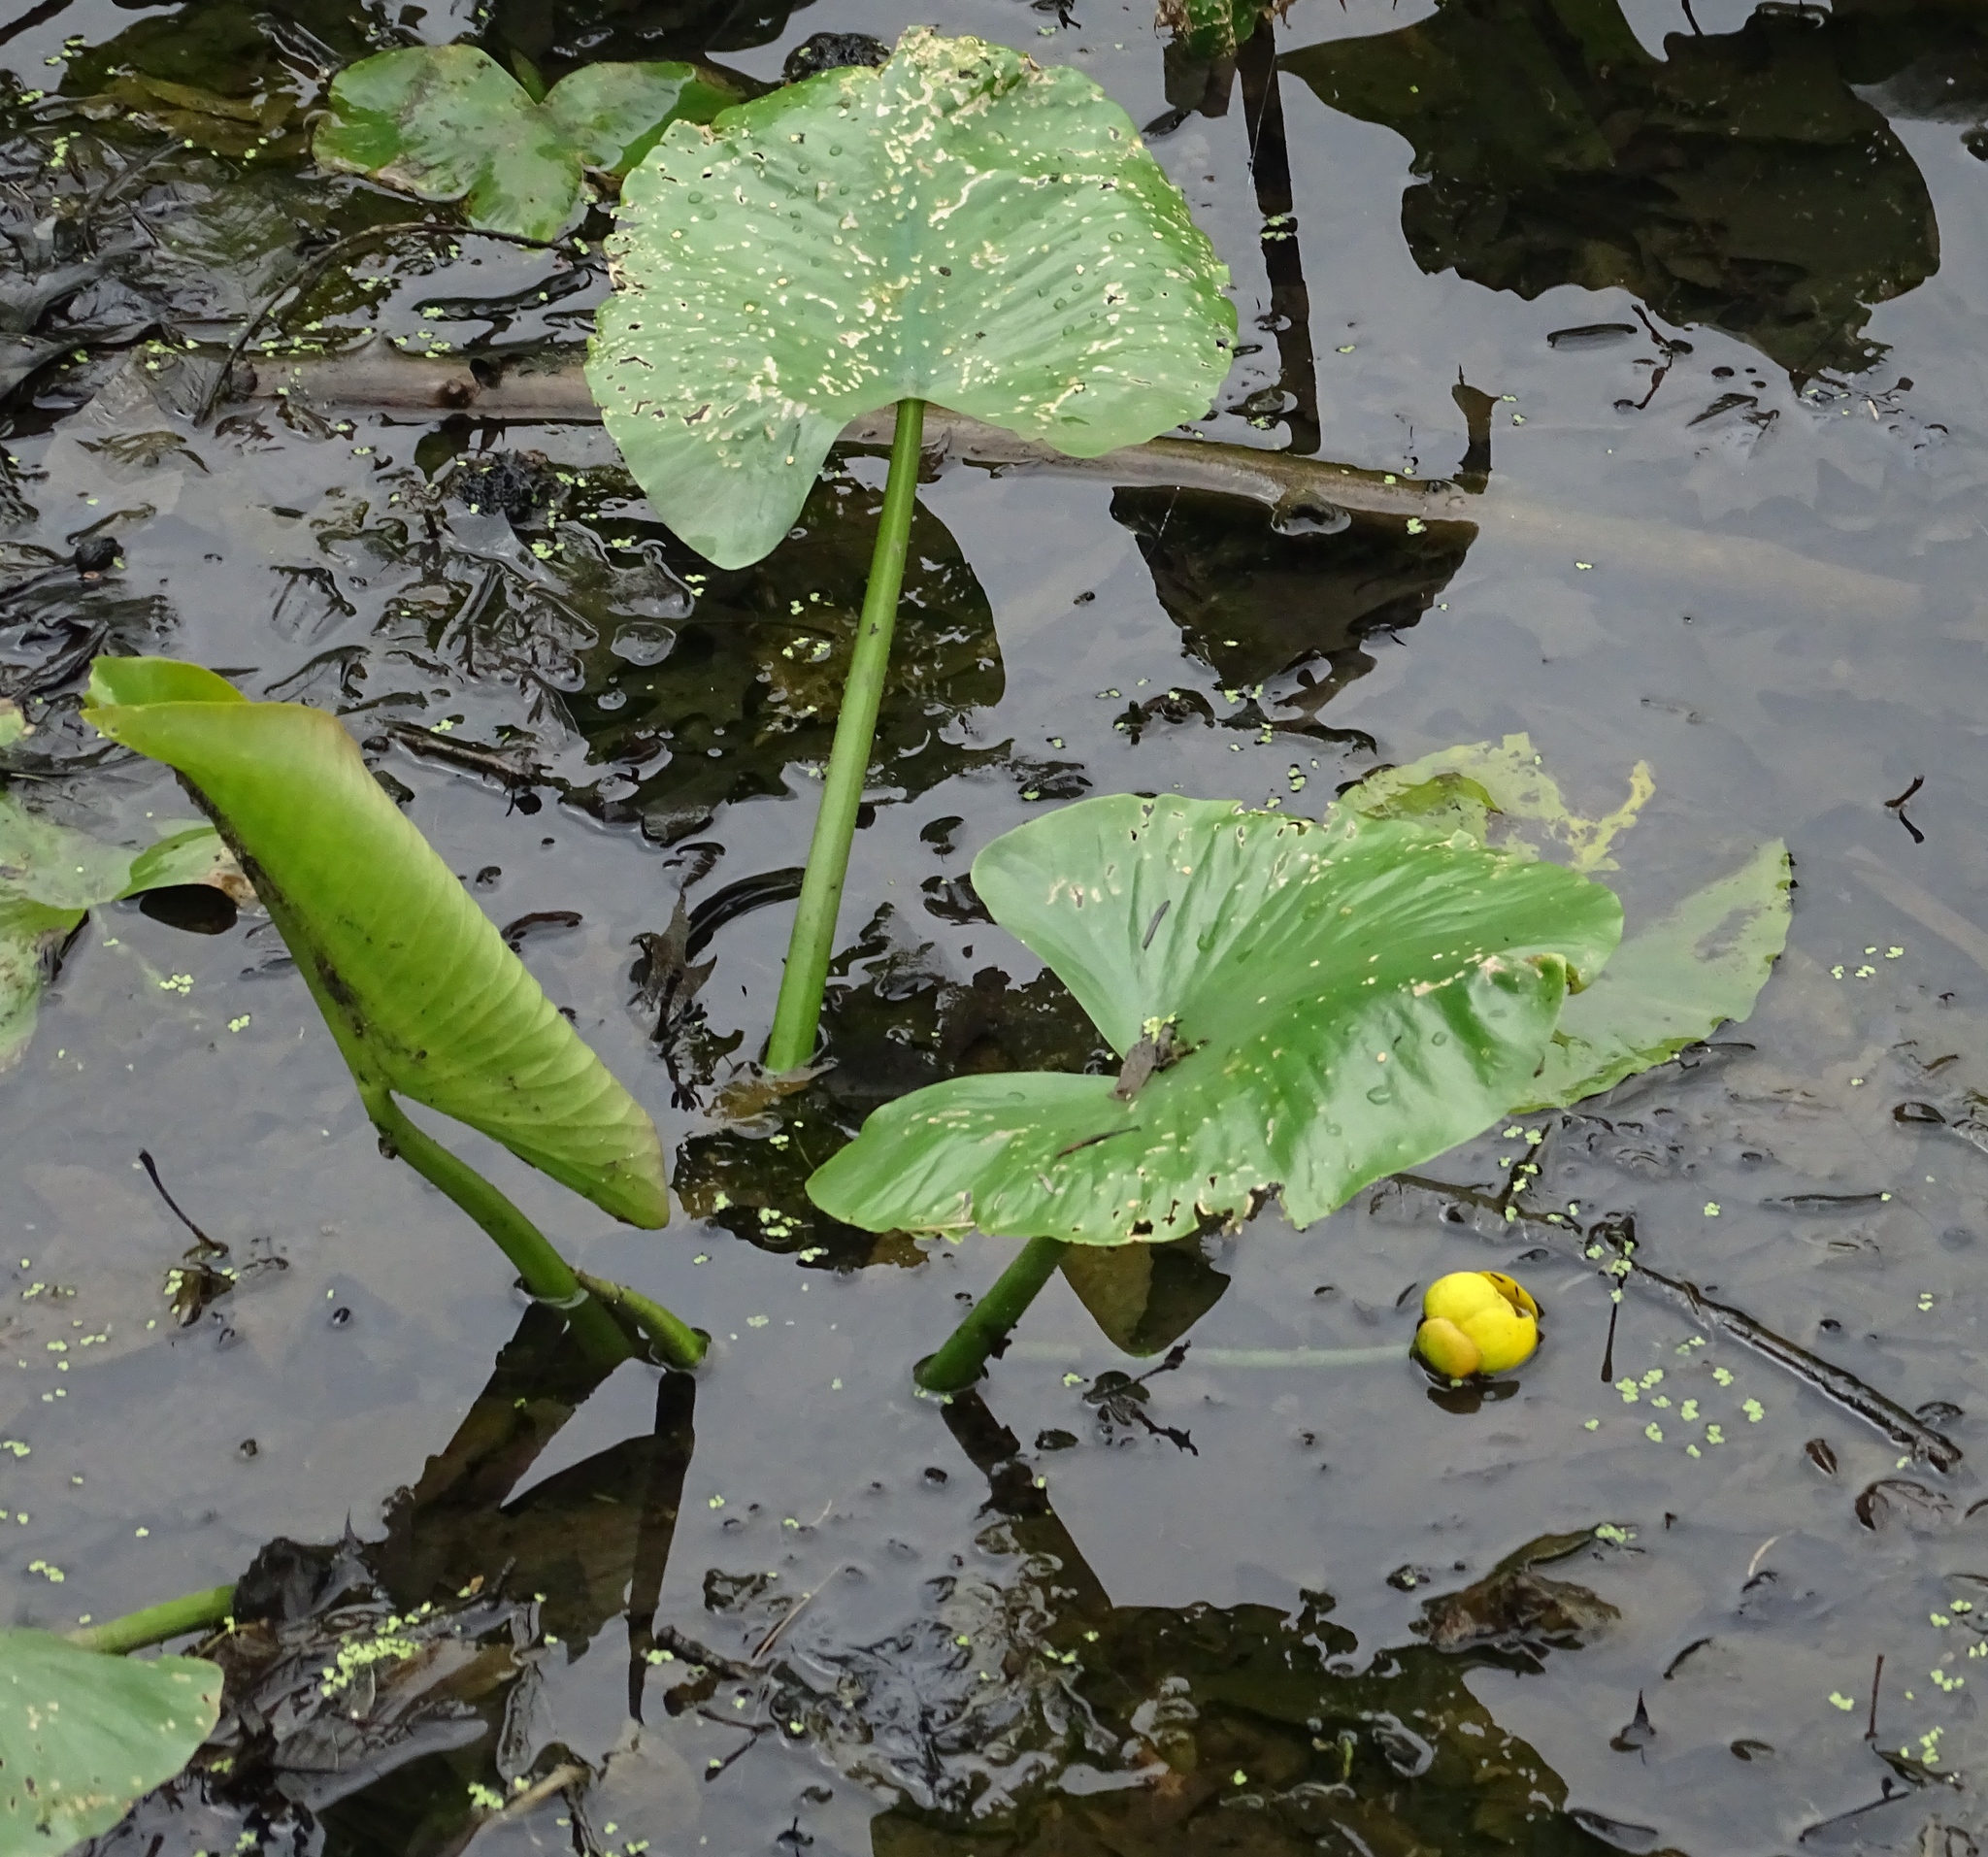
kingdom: Plantae
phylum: Tracheophyta
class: Magnoliopsida
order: Nymphaeales
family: Nymphaeaceae
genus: Nuphar
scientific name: Nuphar advena
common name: Spatter-dock
